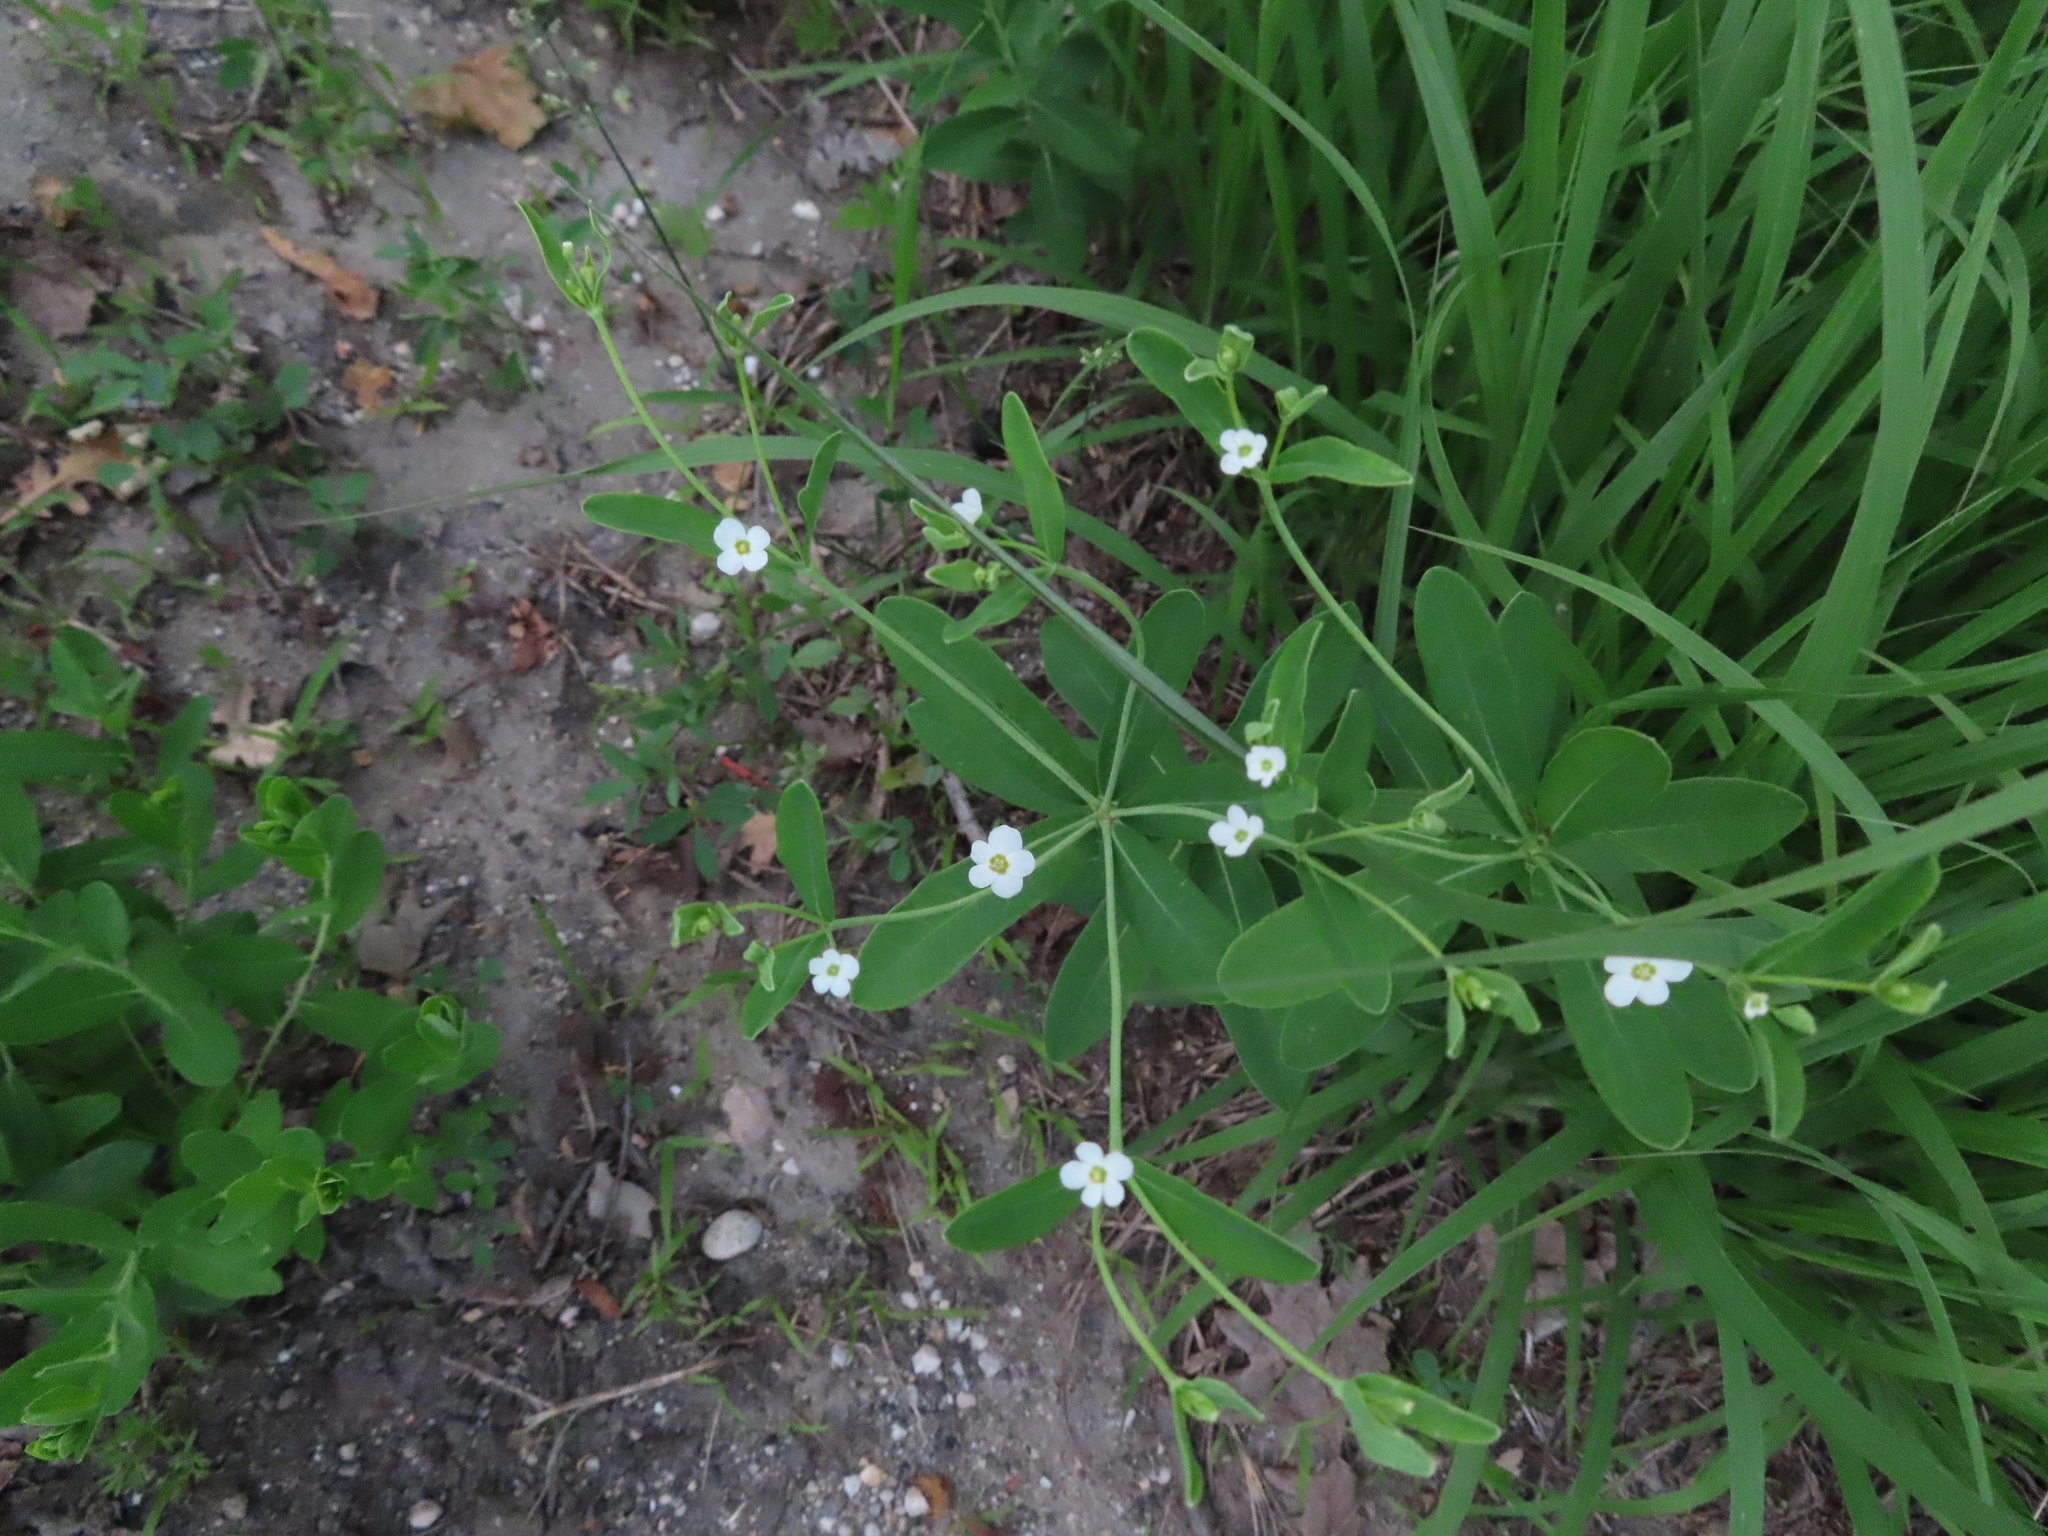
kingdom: Plantae
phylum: Tracheophyta
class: Magnoliopsida
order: Malpighiales
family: Euphorbiaceae
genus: Euphorbia
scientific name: Euphorbia corollata
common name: Flowering spurge
